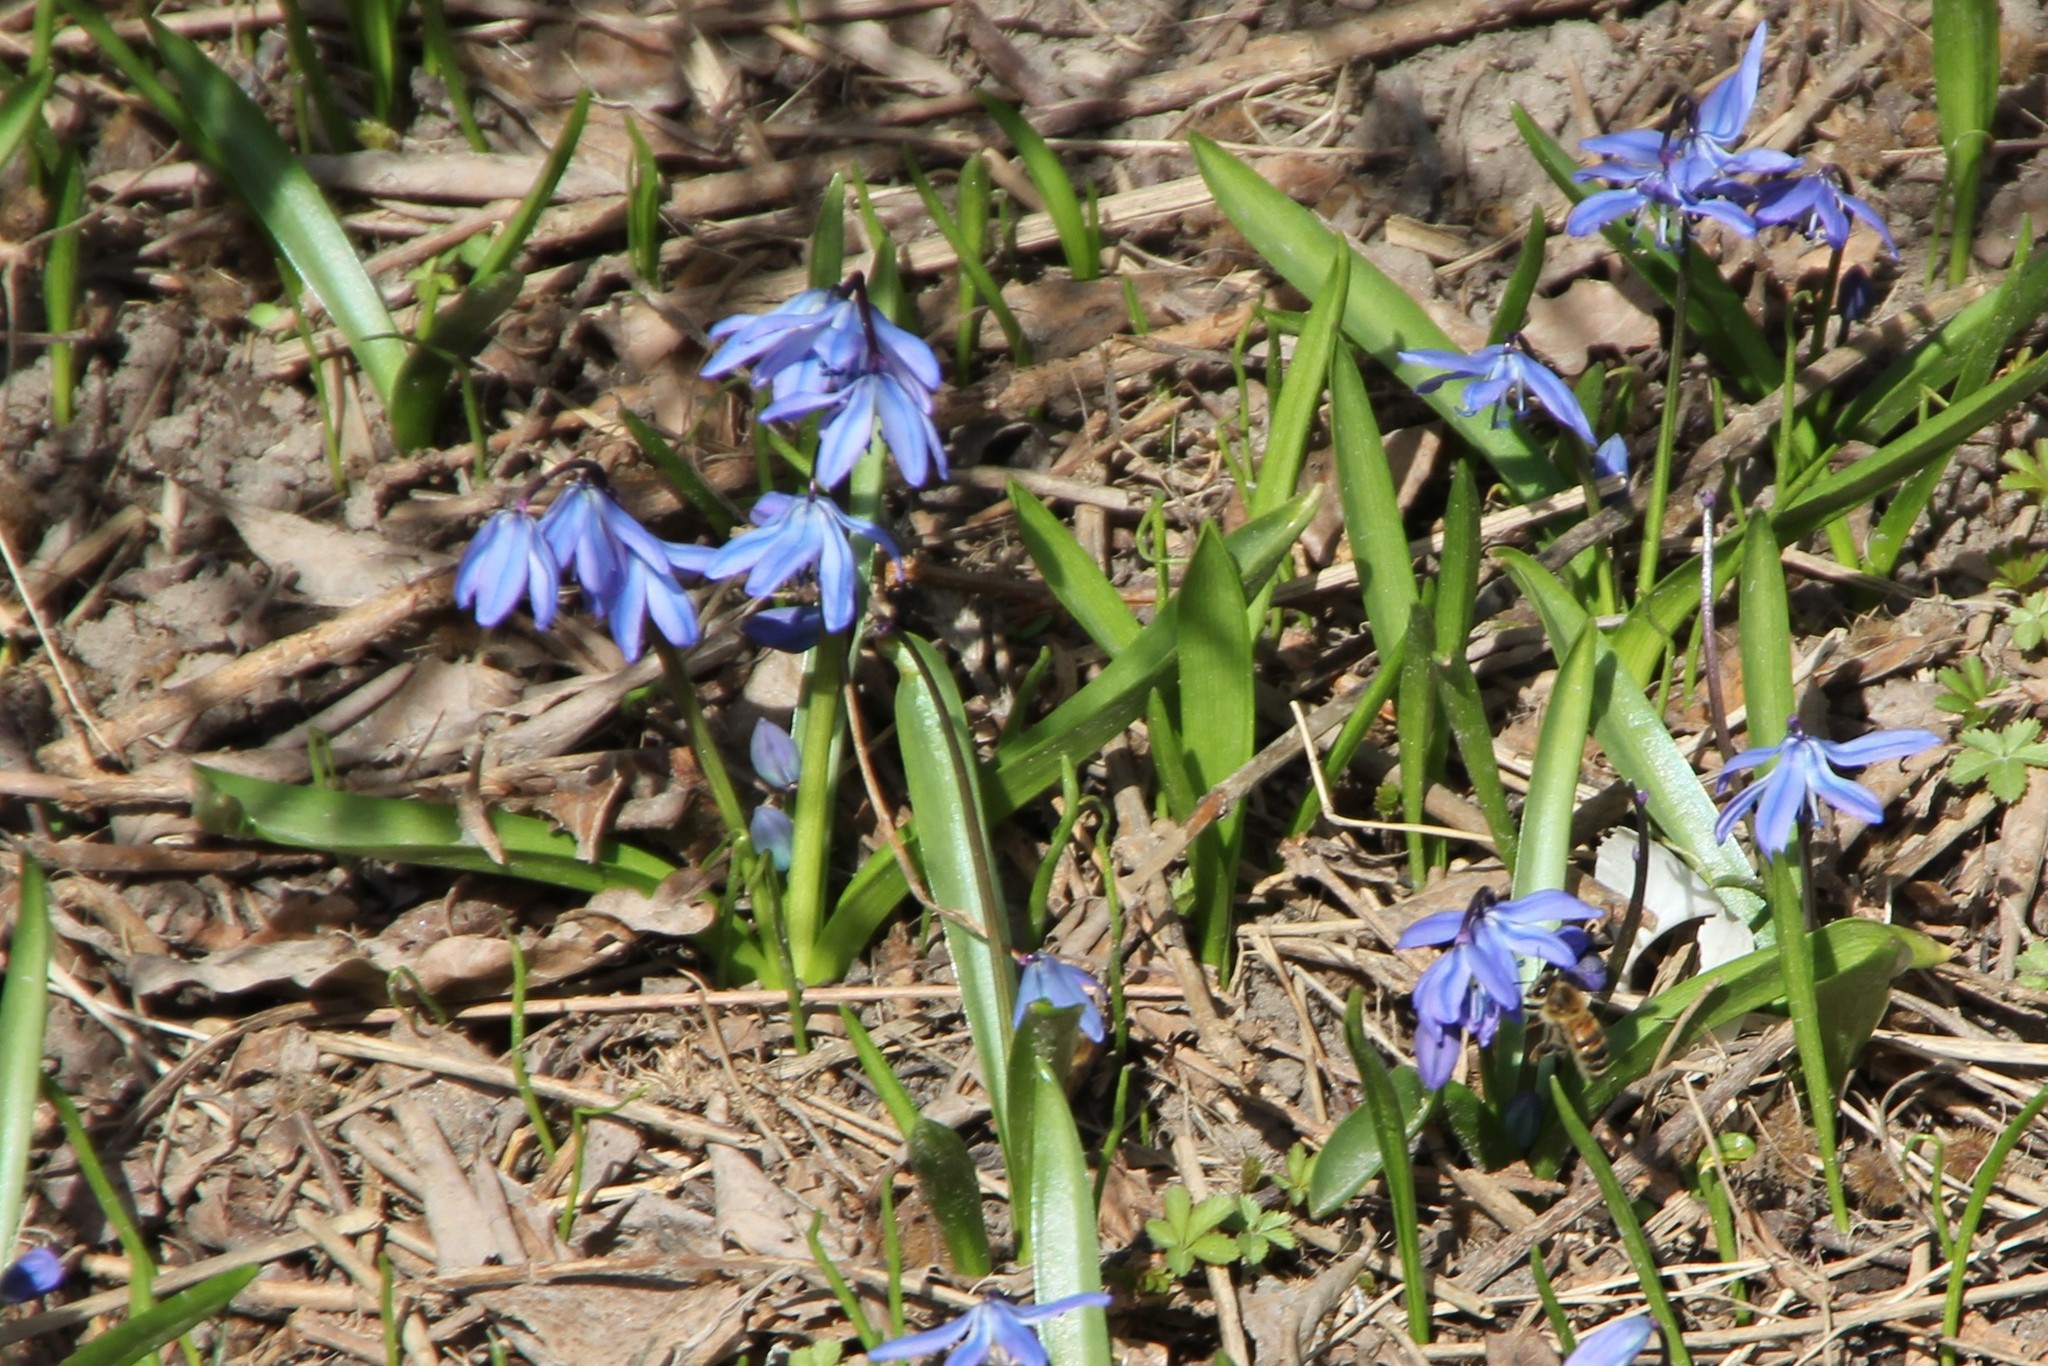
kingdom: Plantae
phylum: Tracheophyta
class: Liliopsida
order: Asparagales
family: Asparagaceae
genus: Scilla
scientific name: Scilla siberica
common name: Siberian squill
